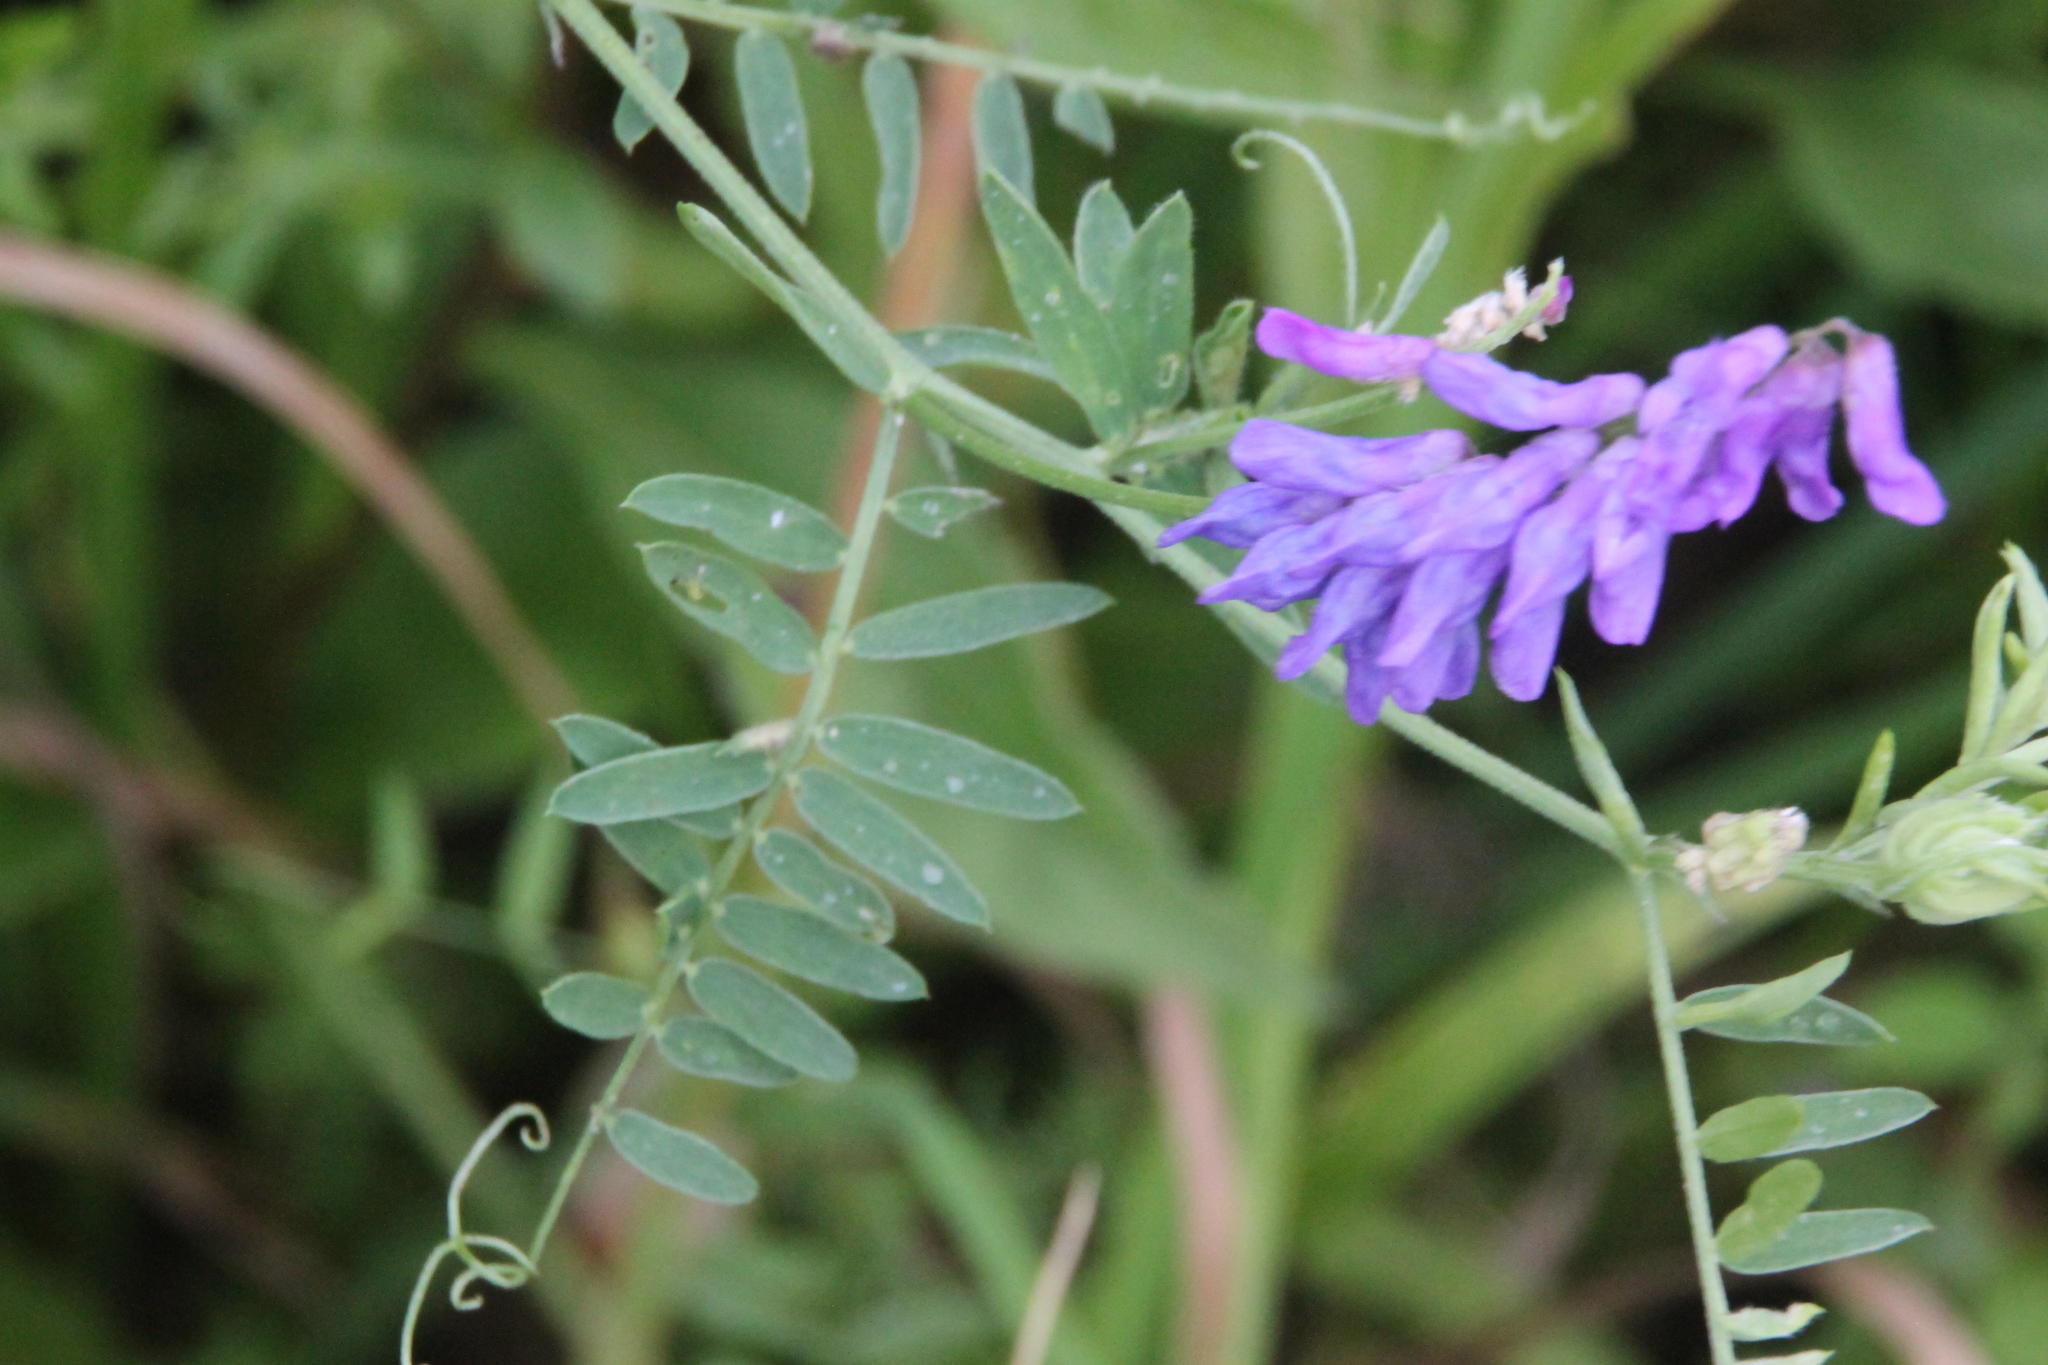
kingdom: Plantae
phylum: Tracheophyta
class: Magnoliopsida
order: Fabales
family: Fabaceae
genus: Vicia
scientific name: Vicia cracca
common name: Bird vetch
